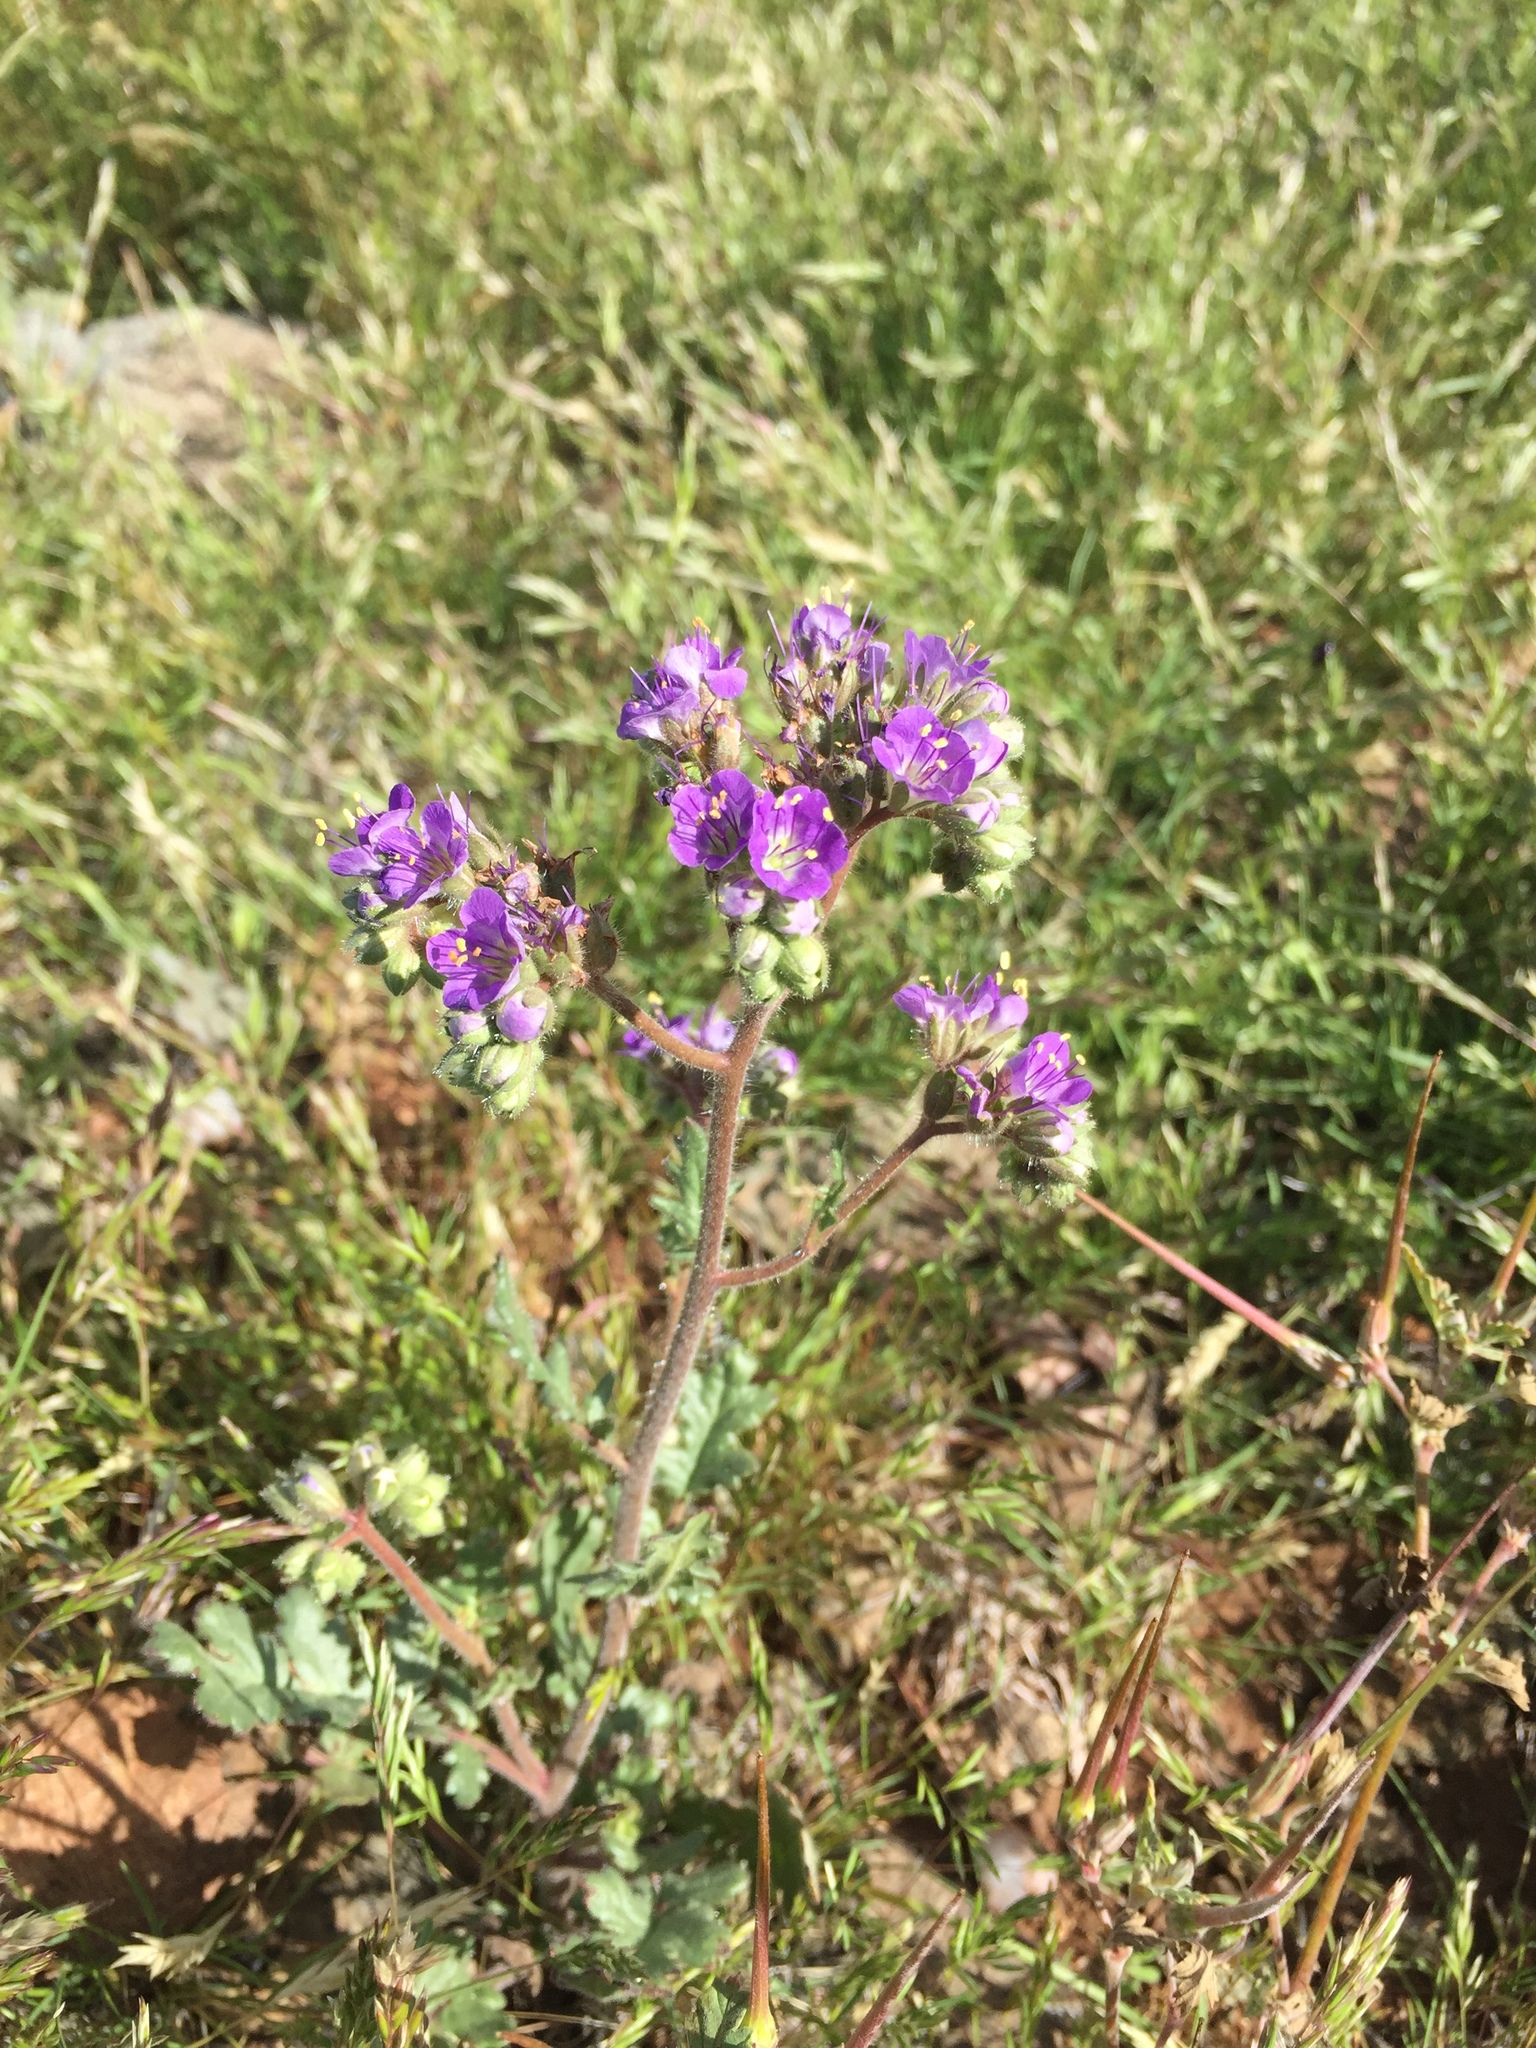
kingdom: Plantae
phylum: Tracheophyta
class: Magnoliopsida
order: Boraginales
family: Hydrophyllaceae
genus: Phacelia
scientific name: Phacelia crenulata
